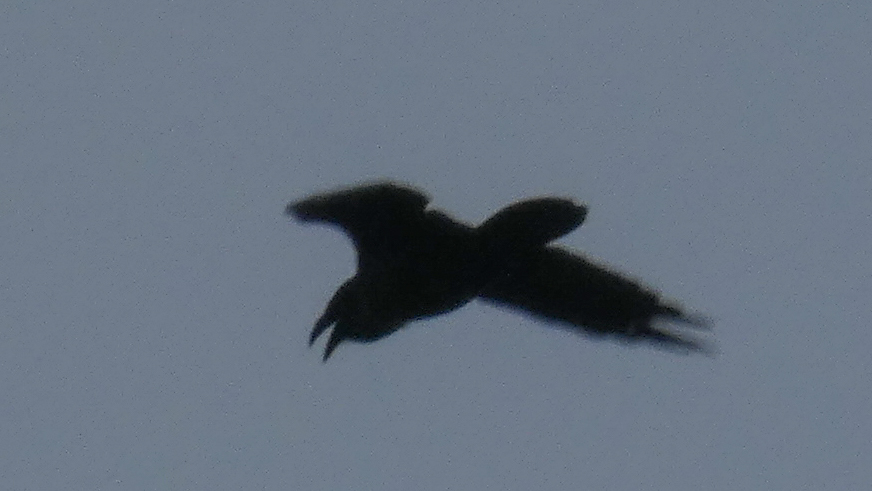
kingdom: Animalia
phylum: Chordata
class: Aves
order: Passeriformes
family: Corvidae
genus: Corvus
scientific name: Corvus corax
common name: Common raven
